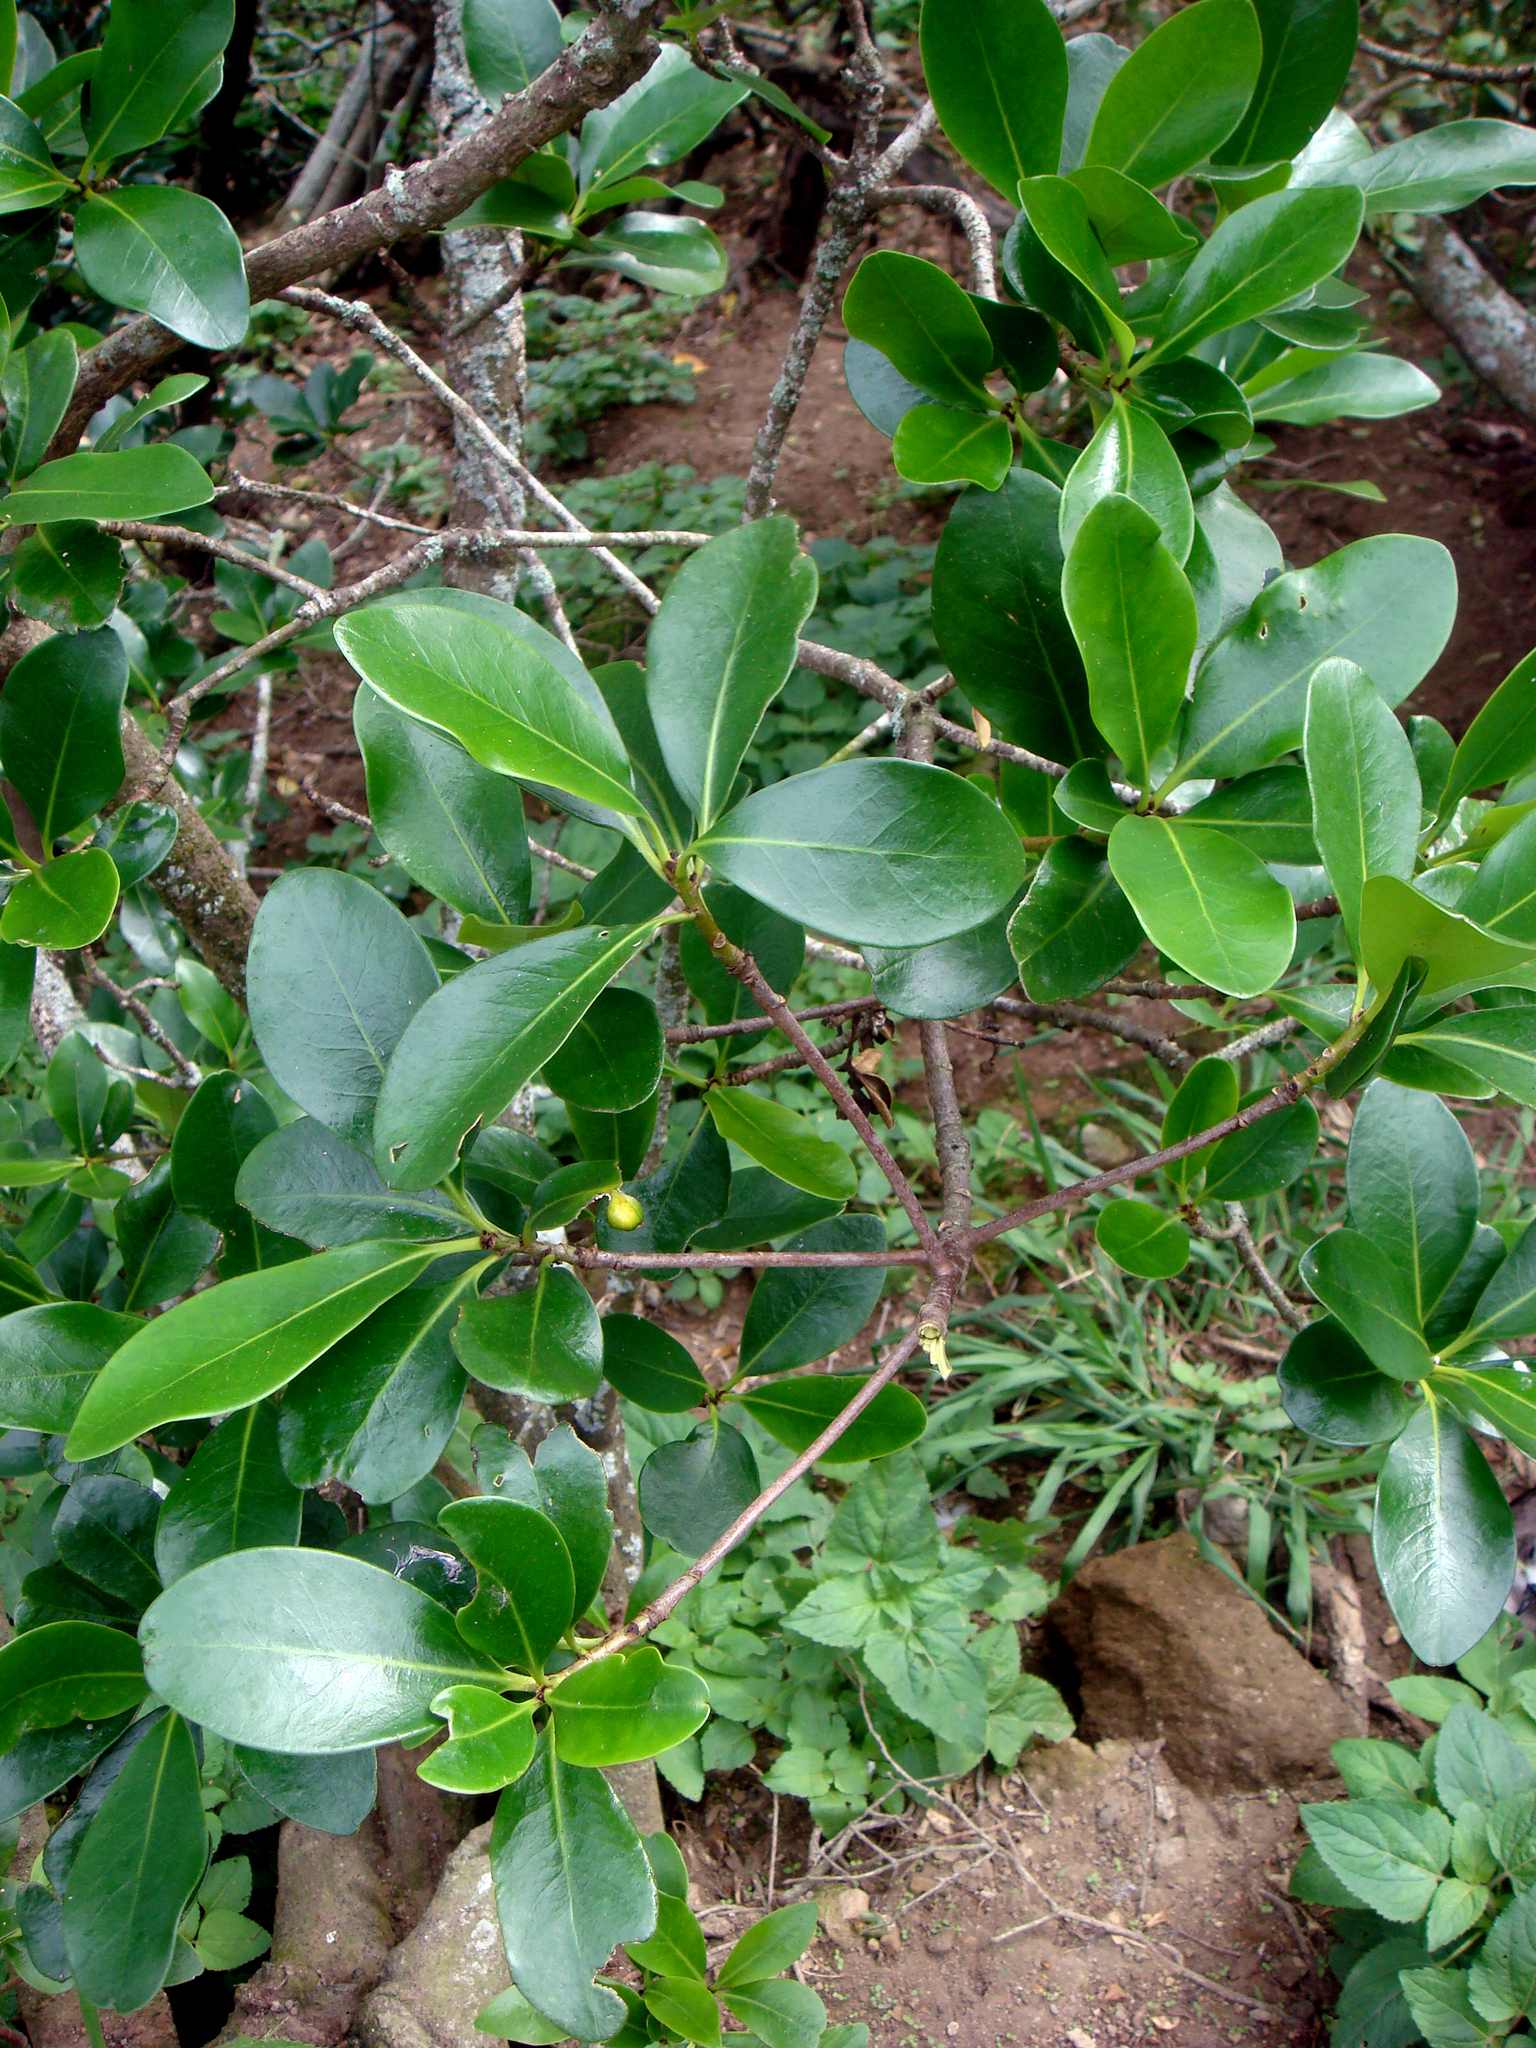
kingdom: Plantae
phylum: Tracheophyta
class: Magnoliopsida
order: Cucurbitales
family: Corynocarpaceae
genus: Corynocarpus
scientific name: Corynocarpus laevigatus
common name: New zealand laurel
